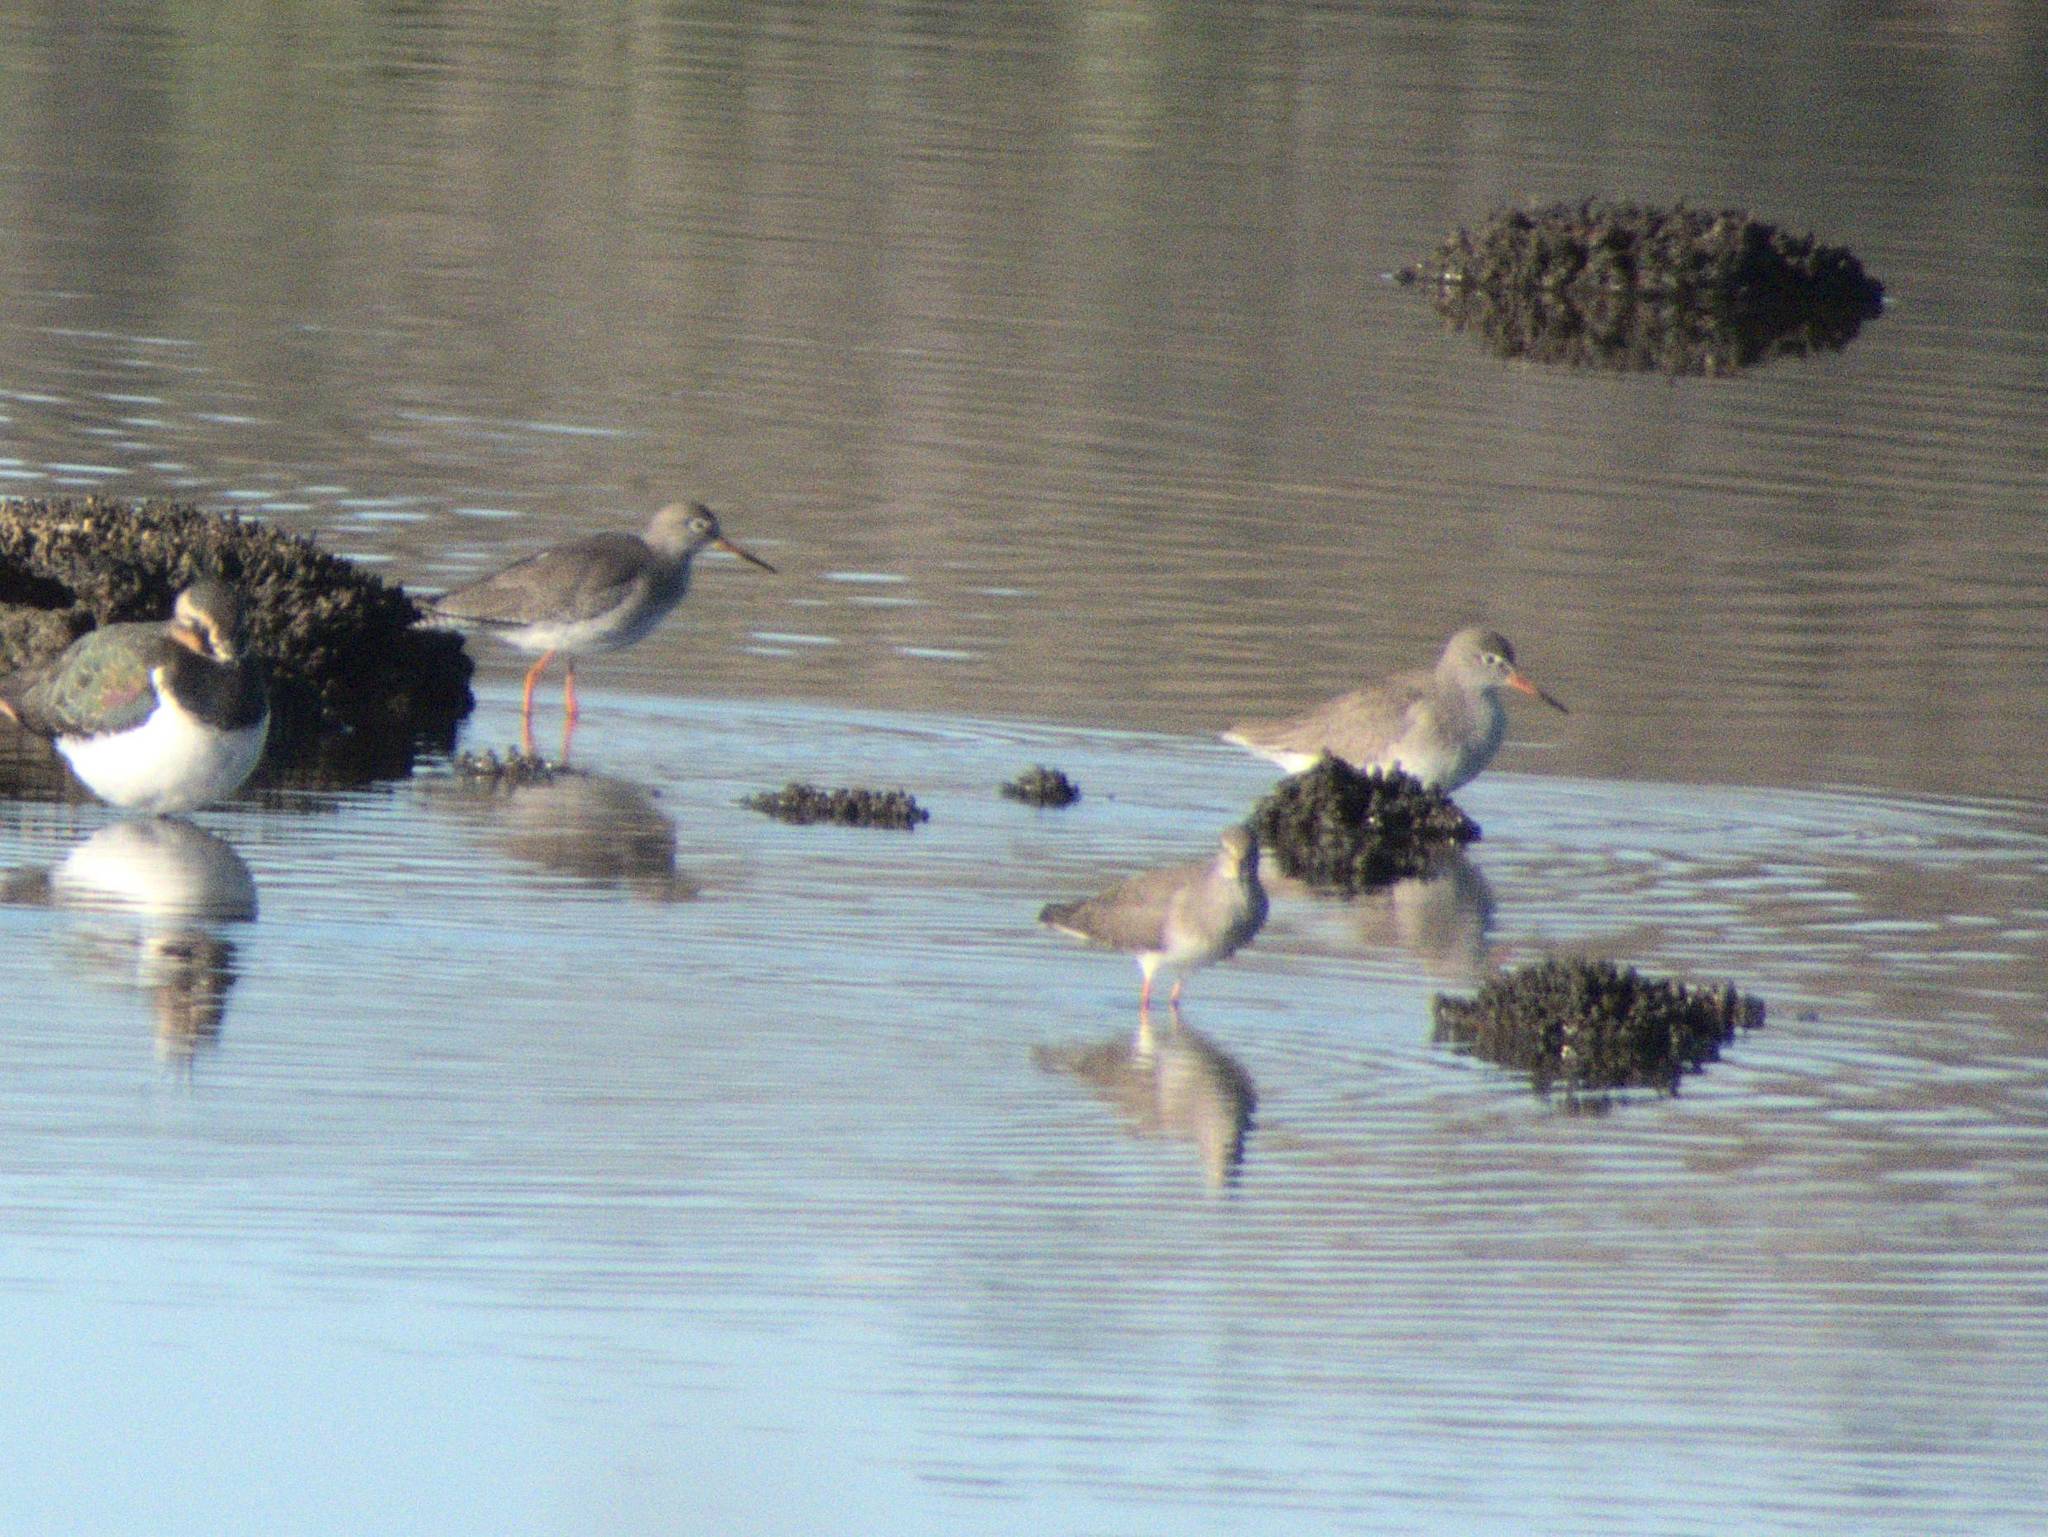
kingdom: Animalia
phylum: Chordata
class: Aves
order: Charadriiformes
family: Scolopacidae
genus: Tringa
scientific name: Tringa totanus
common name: Common redshank
